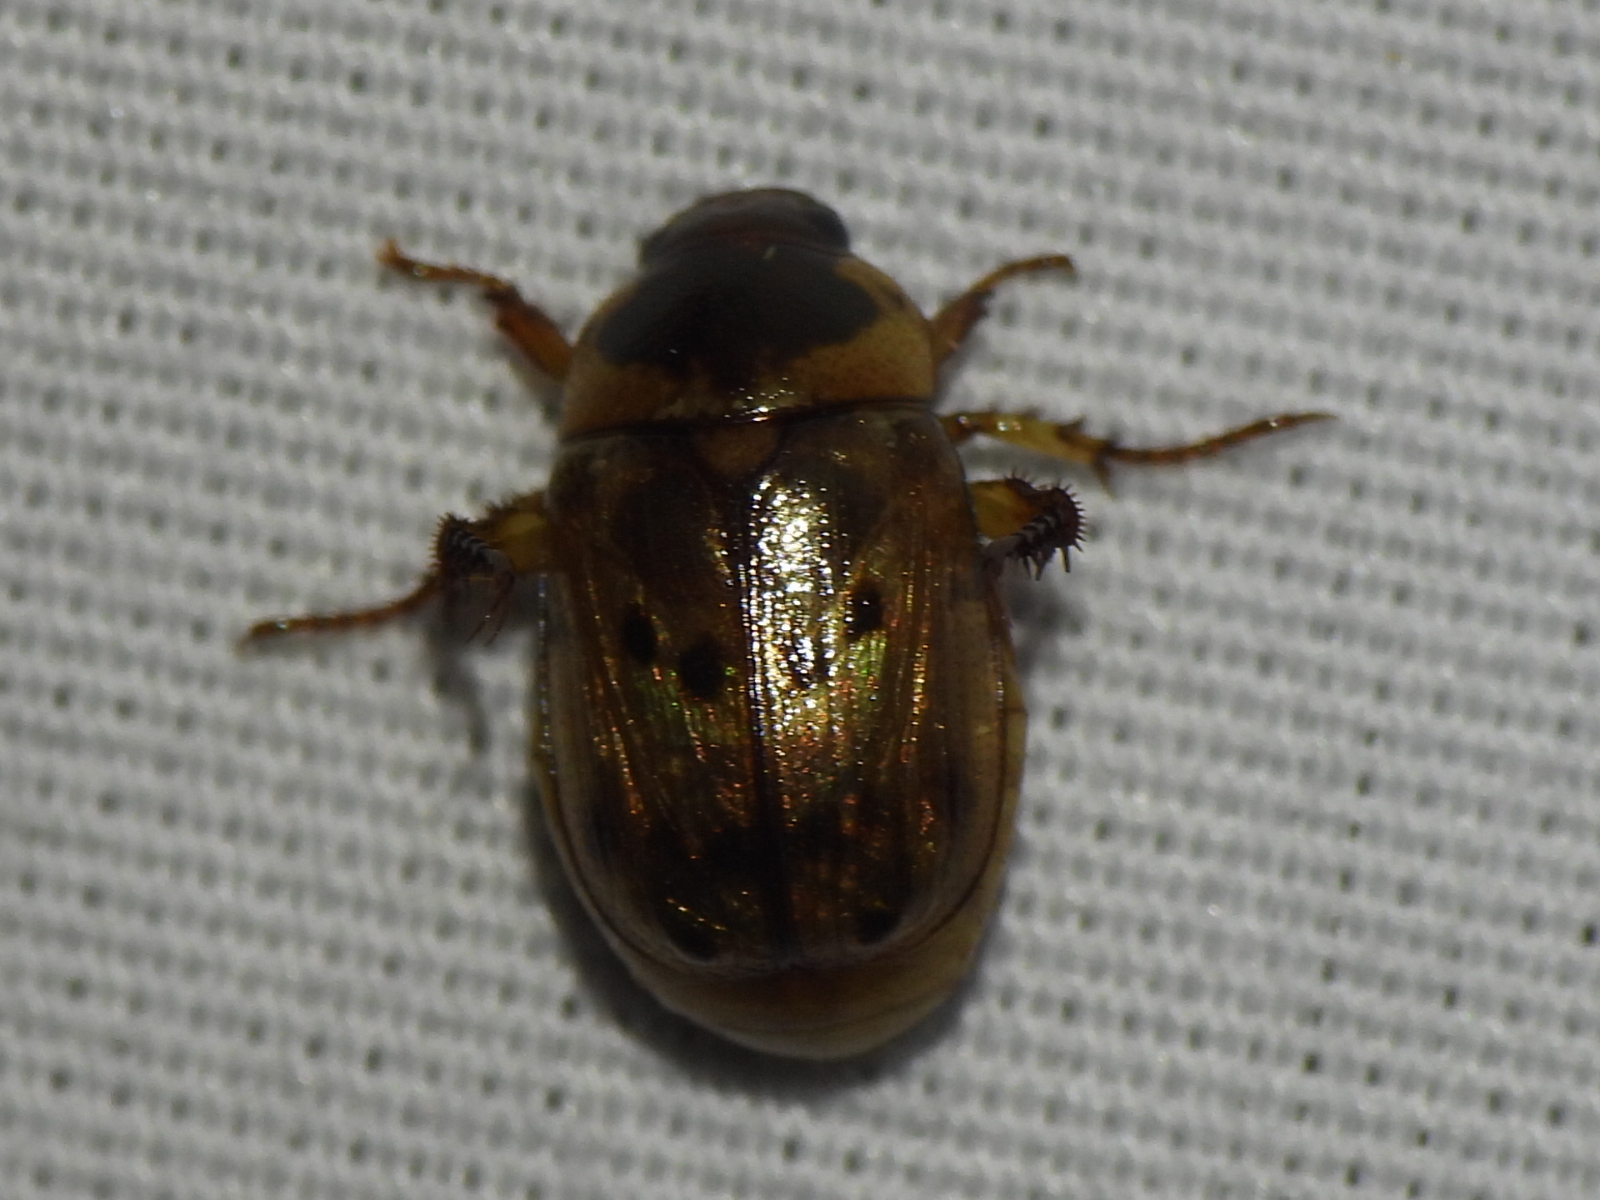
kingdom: Animalia
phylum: Arthropoda
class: Insecta
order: Coleoptera
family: Scarabaeidae
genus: Anomala
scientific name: Anomala innuba
